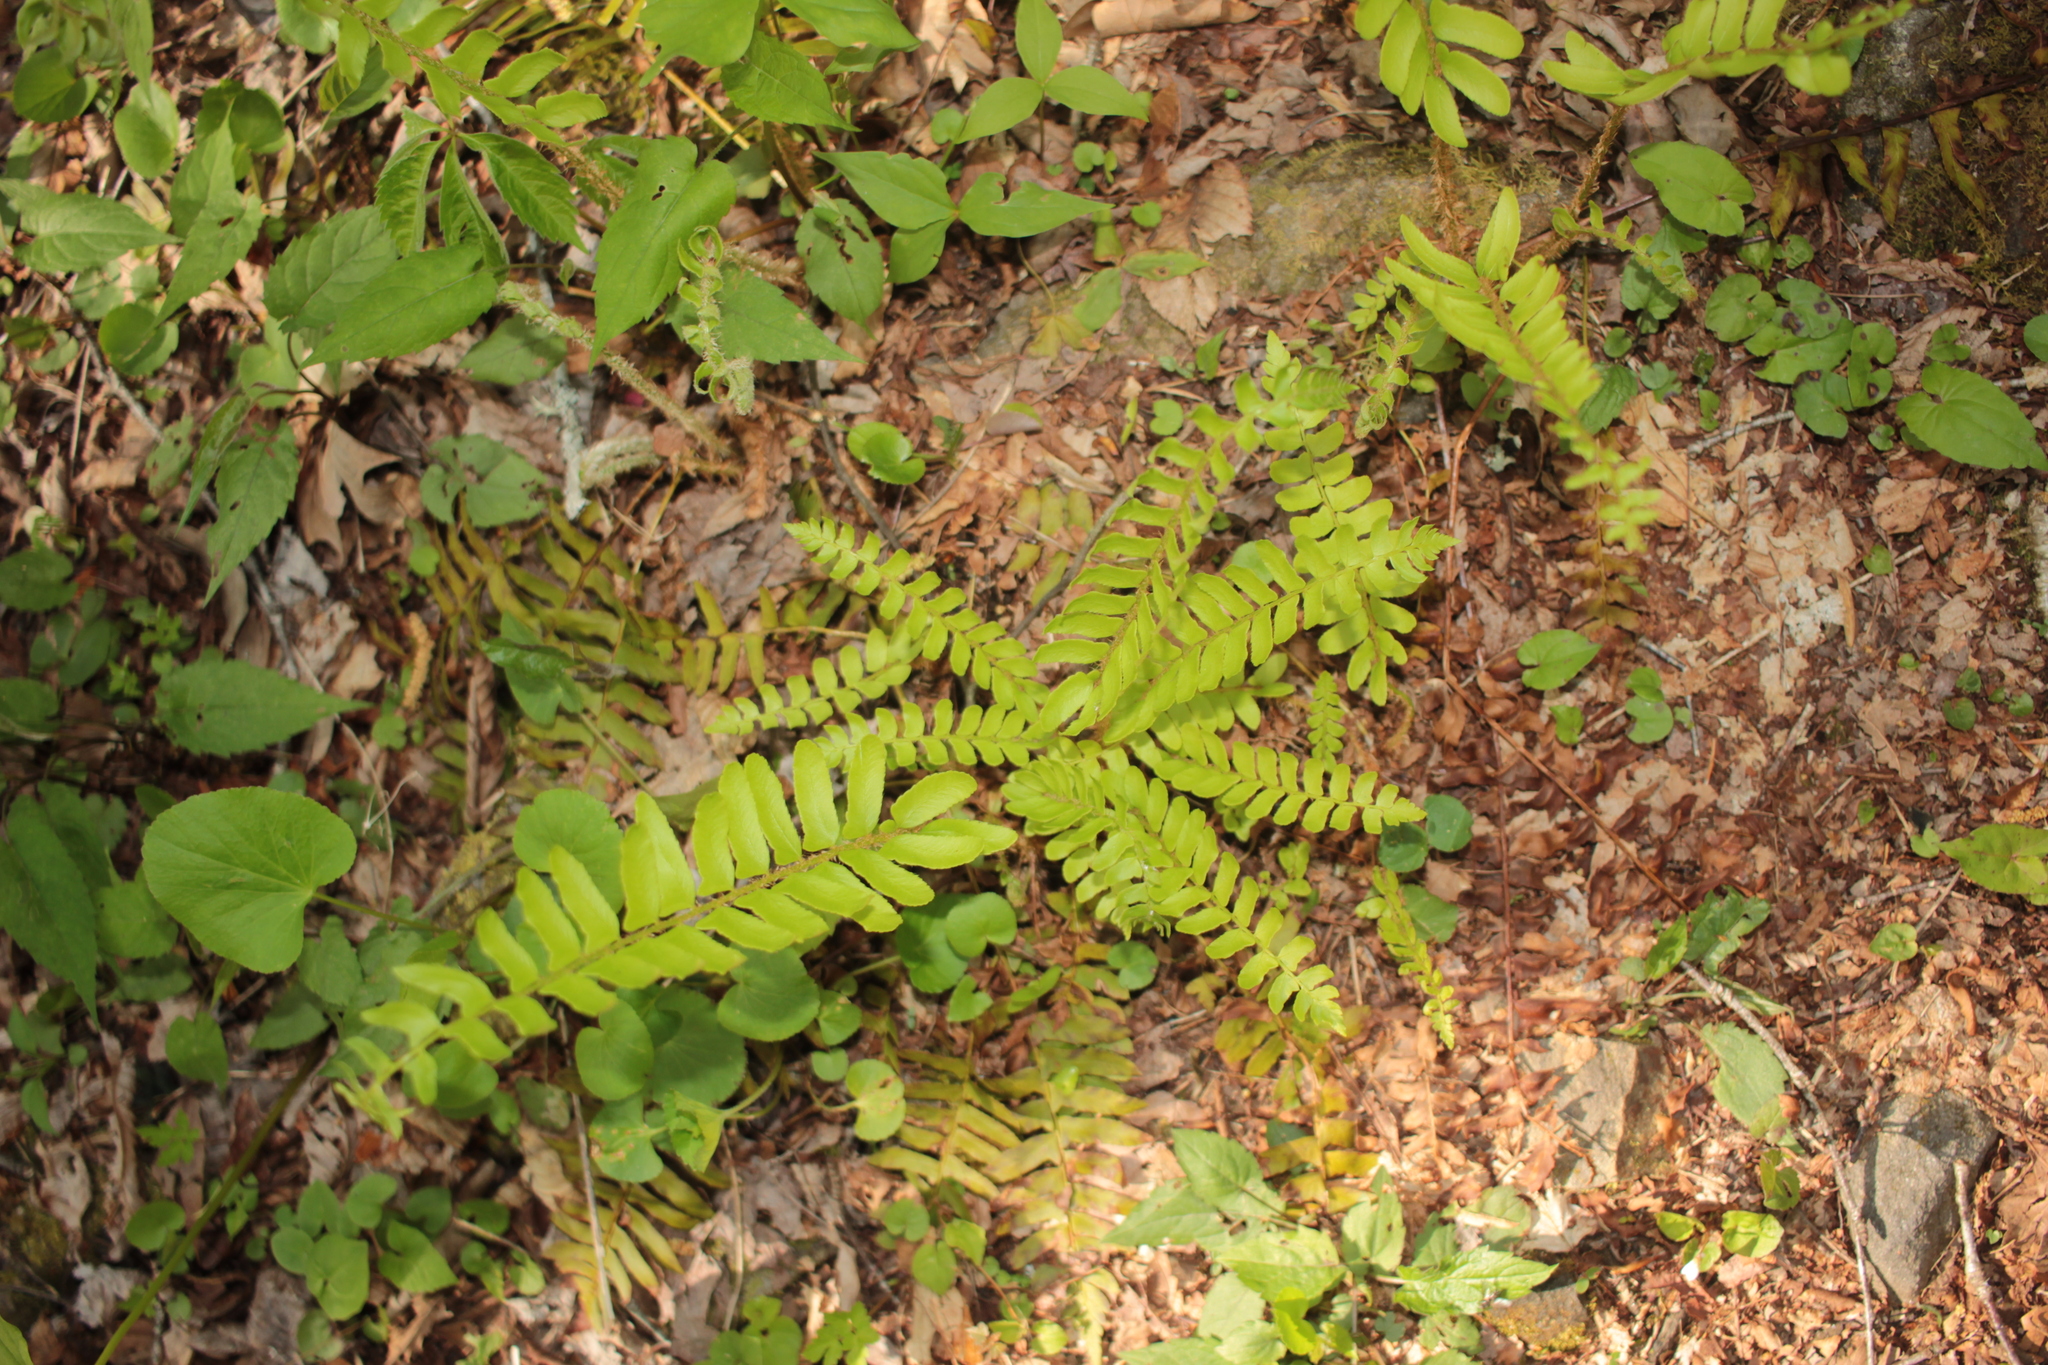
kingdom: Plantae
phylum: Tracheophyta
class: Polypodiopsida
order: Polypodiales
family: Dryopteridaceae
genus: Polystichum
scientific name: Polystichum acrostichoides
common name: Christmas fern
